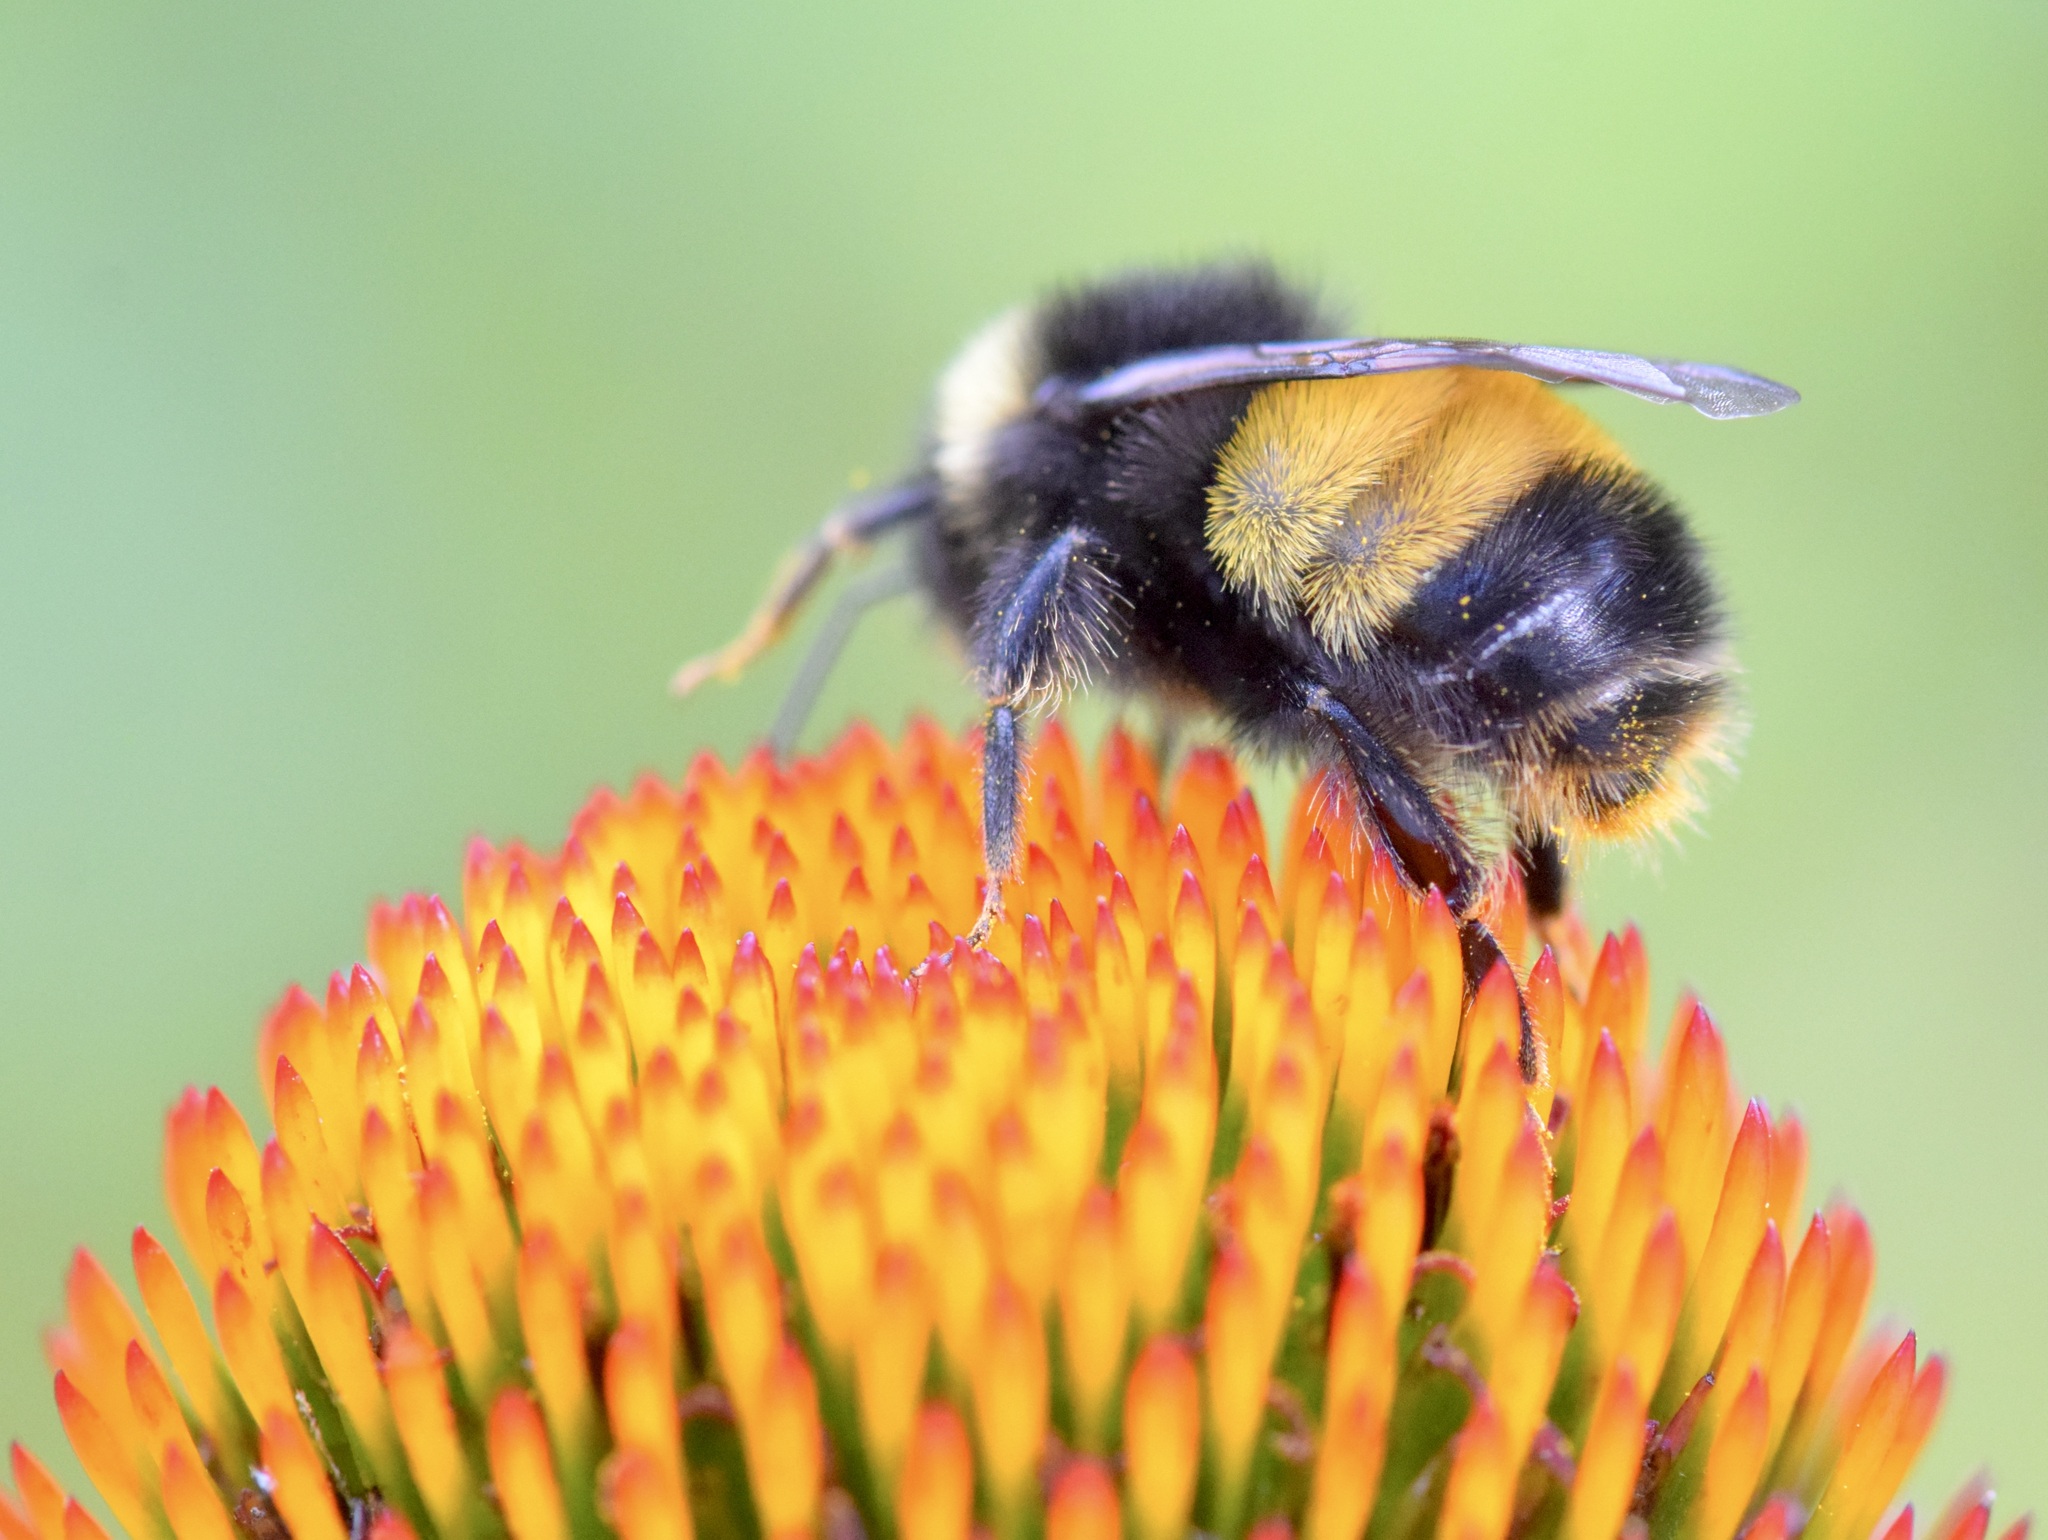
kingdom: Animalia
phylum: Arthropoda
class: Insecta
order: Hymenoptera
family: Apidae
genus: Bombus
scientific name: Bombus terricola
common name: Yellow-banded bumble bee
